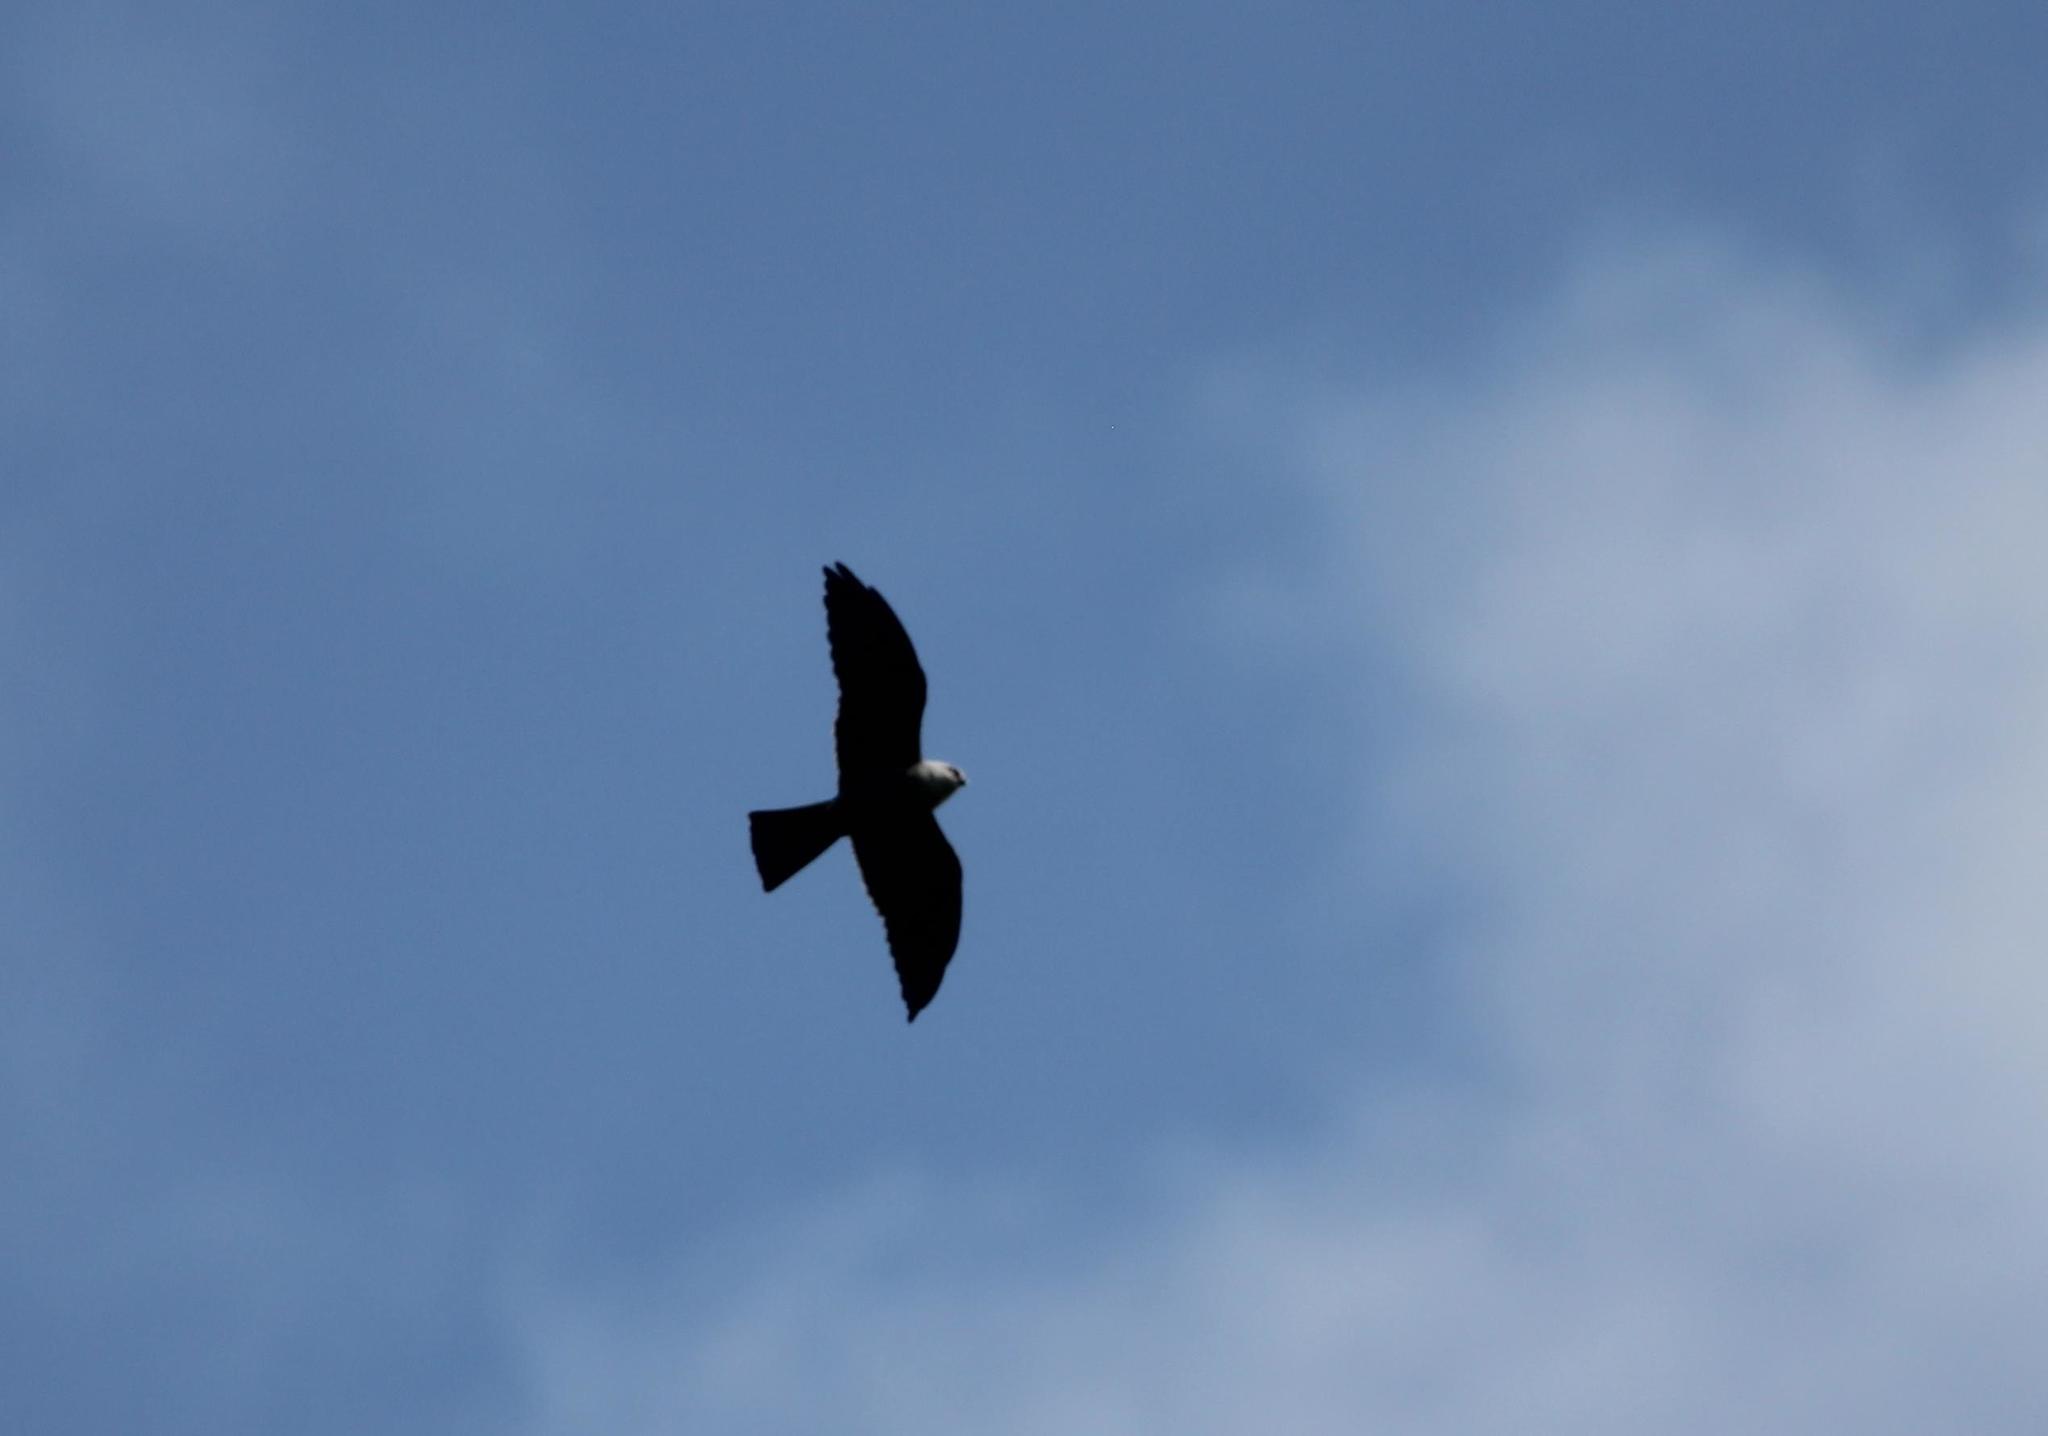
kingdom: Animalia
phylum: Chordata
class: Aves
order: Accipitriformes
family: Accipitridae
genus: Ictinia
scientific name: Ictinia mississippiensis
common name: Mississippi kite
